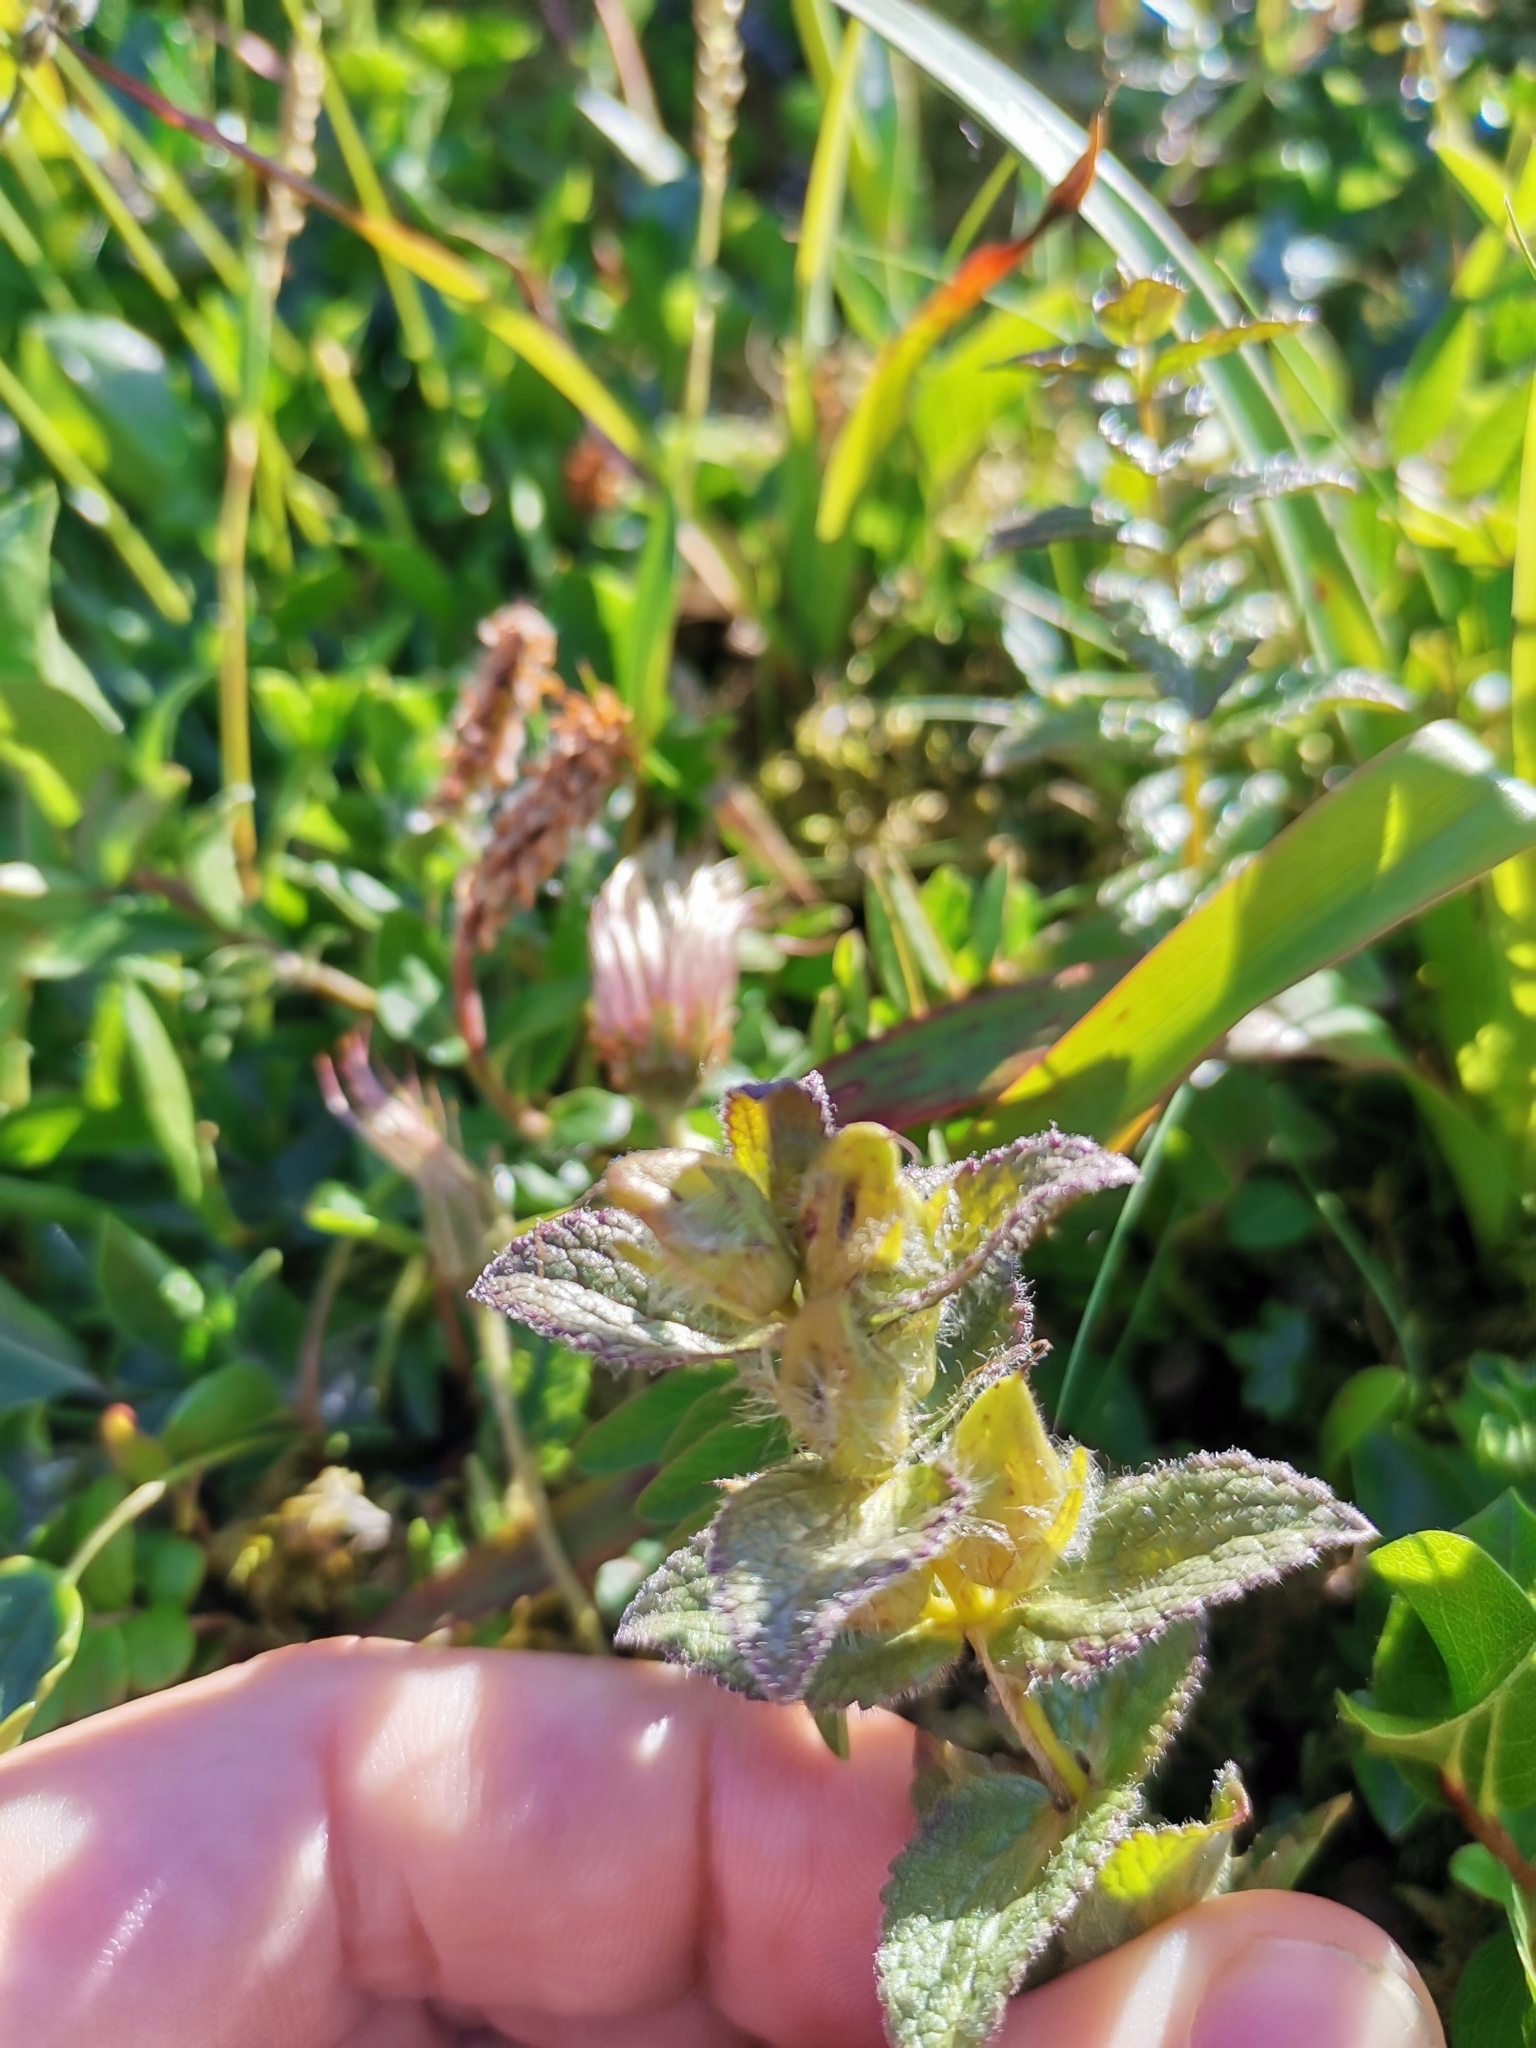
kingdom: Plantae
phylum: Tracheophyta
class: Magnoliopsida
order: Lamiales
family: Orobanchaceae
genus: Bartsia
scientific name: Bartsia alpina
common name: Alpine bartsia
